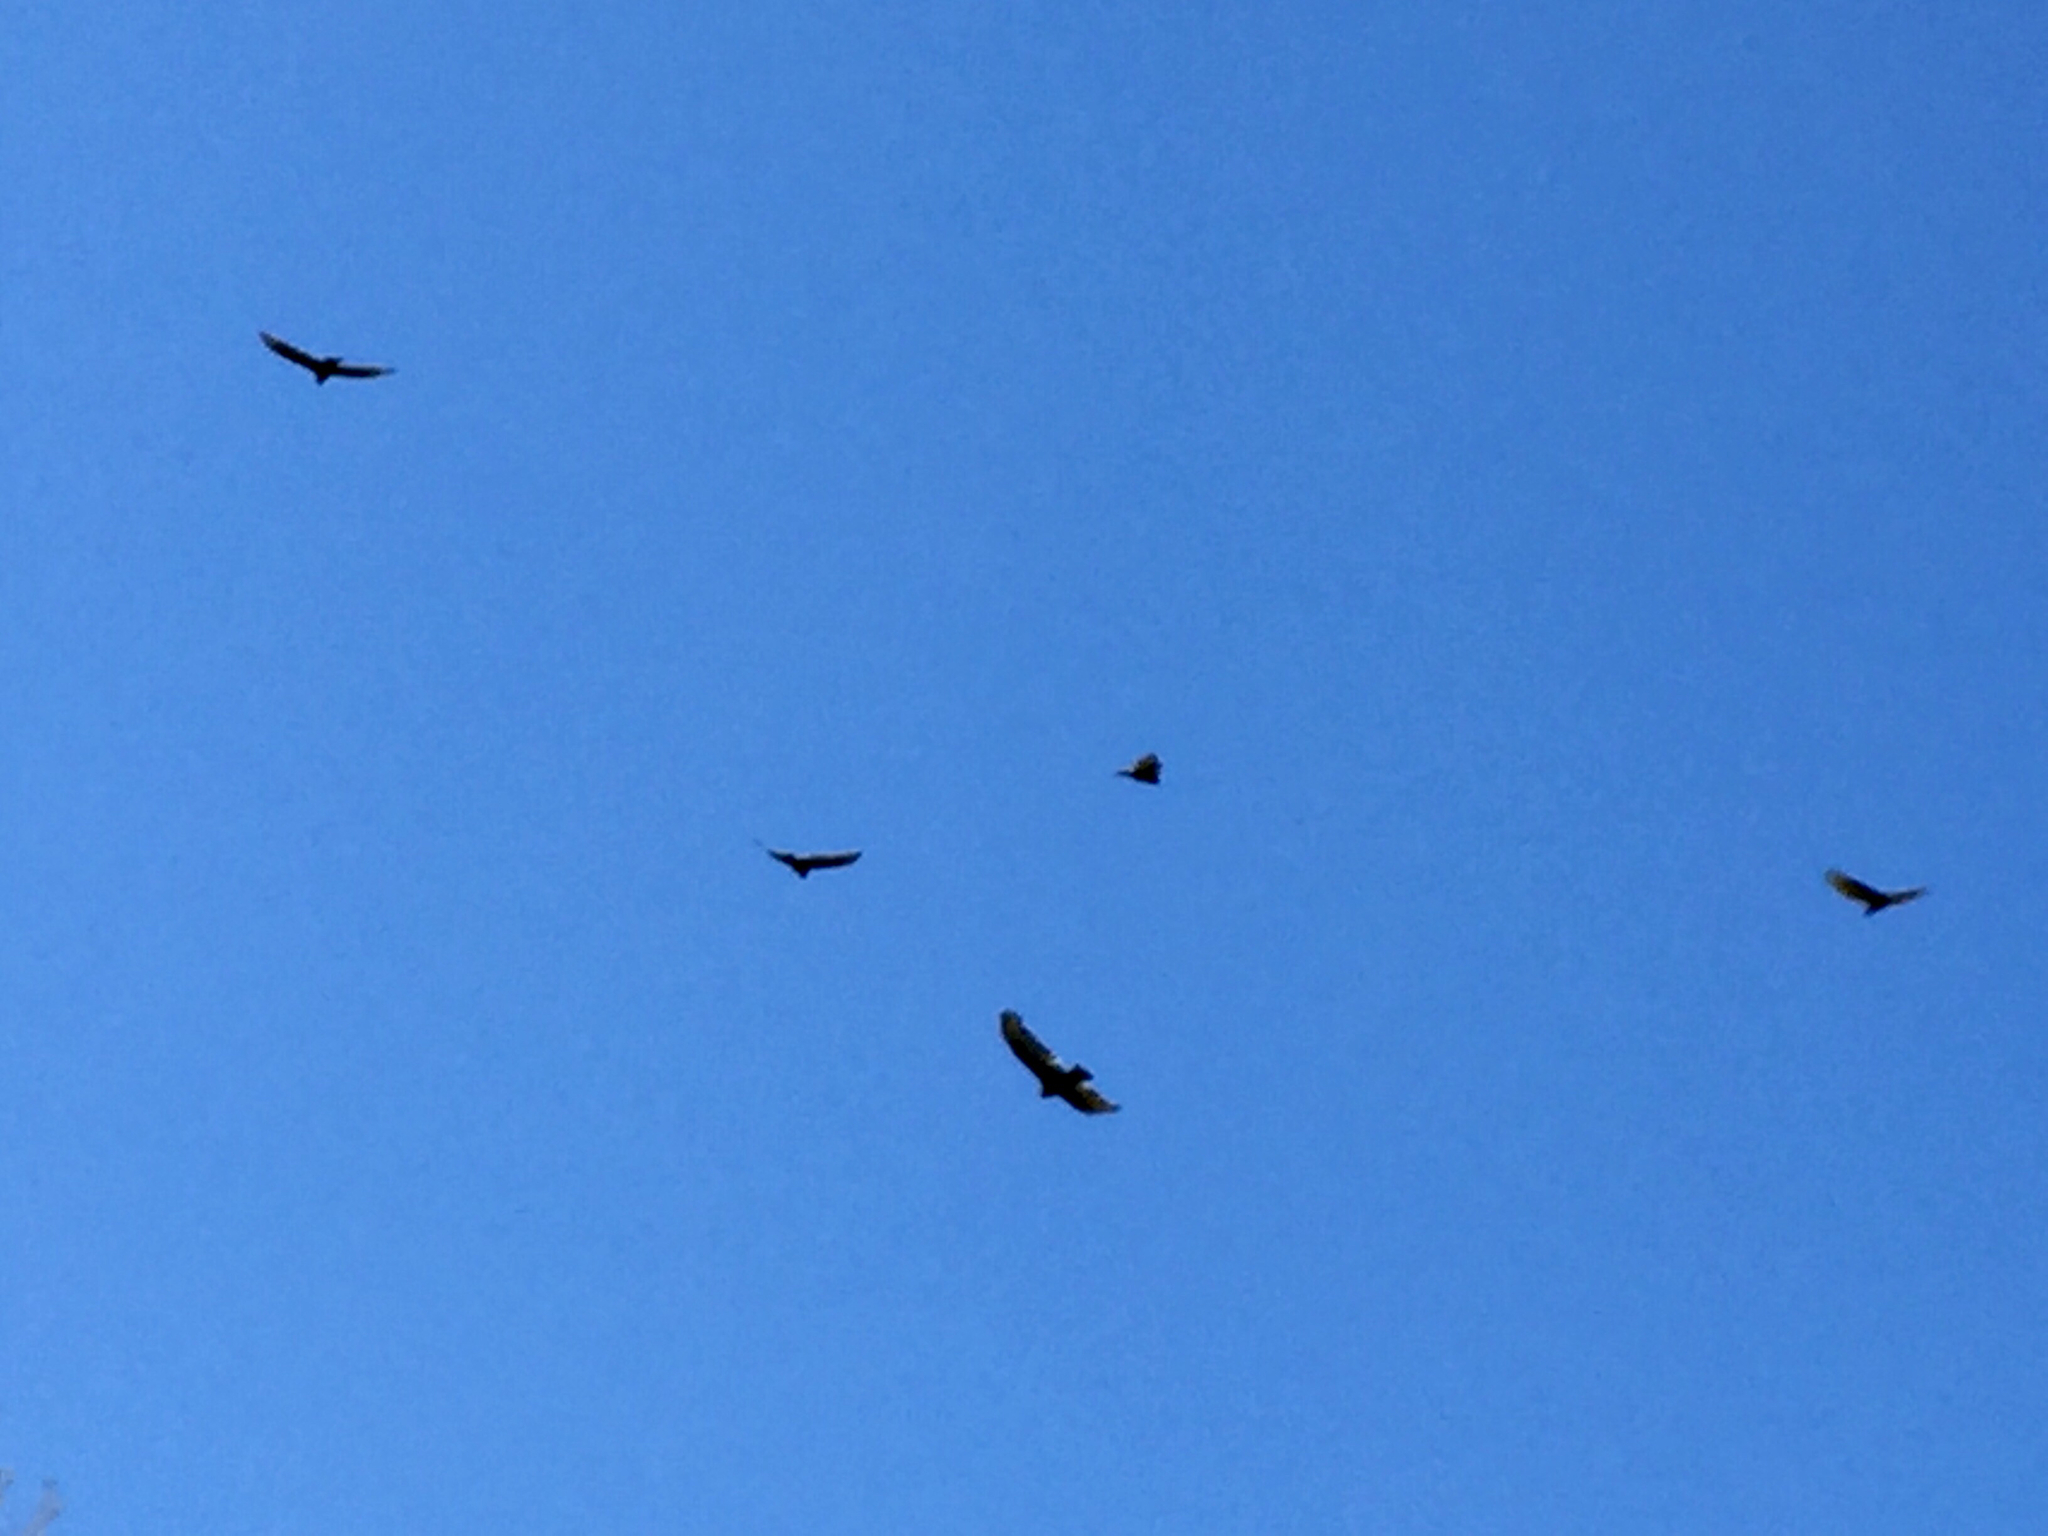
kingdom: Animalia
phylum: Chordata
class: Aves
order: Accipitriformes
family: Cathartidae
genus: Cathartes
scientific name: Cathartes aura
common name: Turkey vulture
